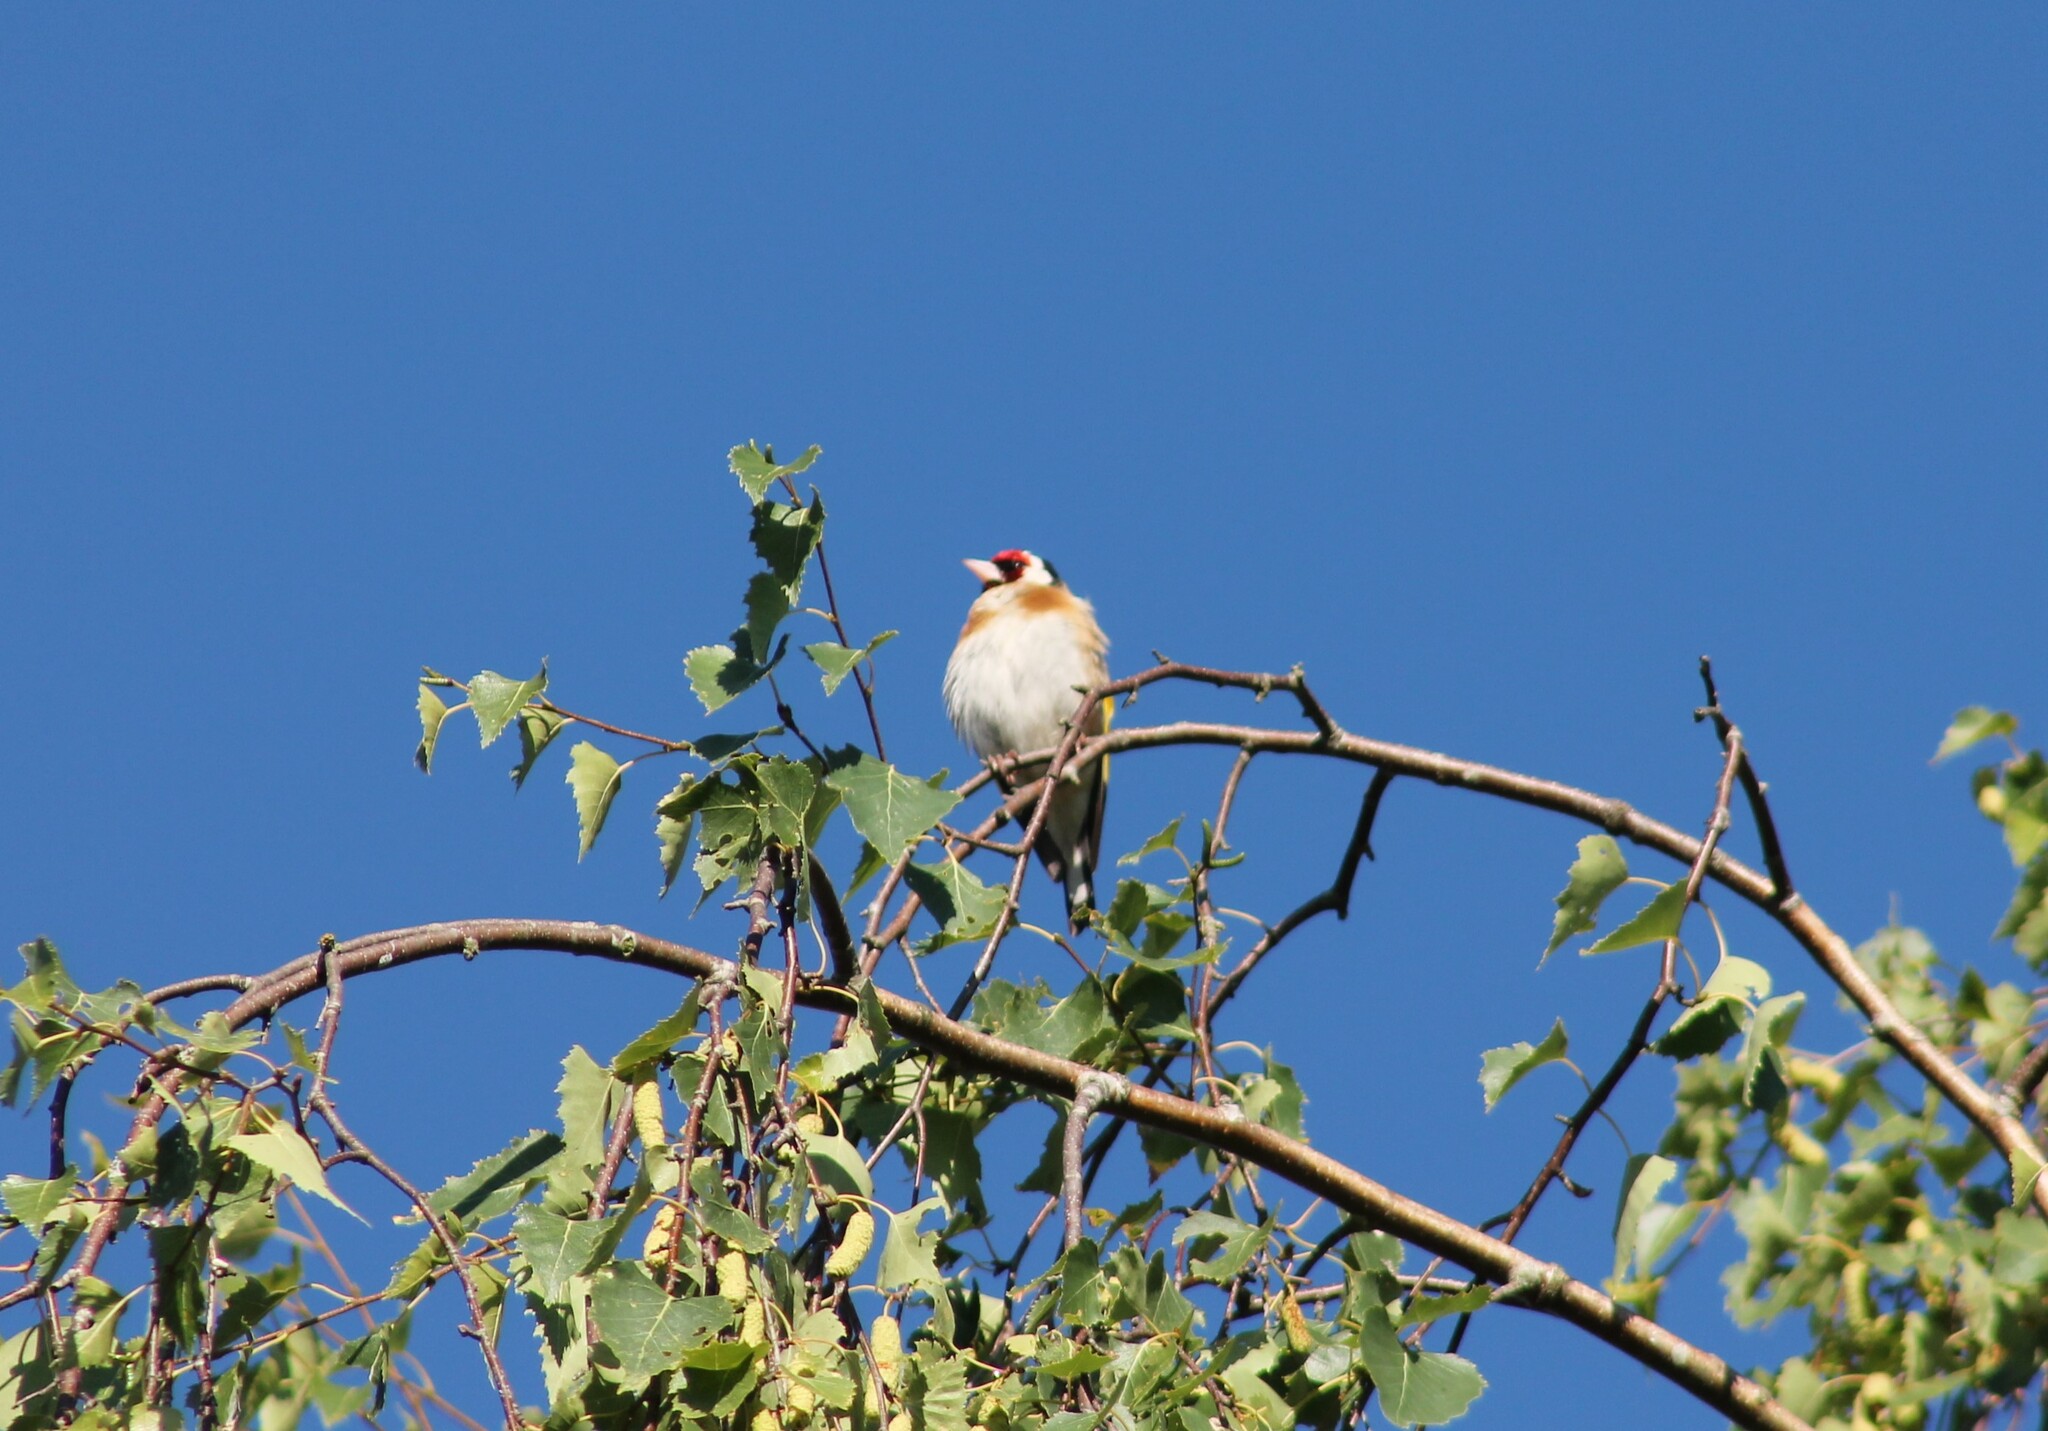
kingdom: Animalia
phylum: Chordata
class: Aves
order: Passeriformes
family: Fringillidae
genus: Carduelis
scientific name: Carduelis carduelis
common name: European goldfinch
